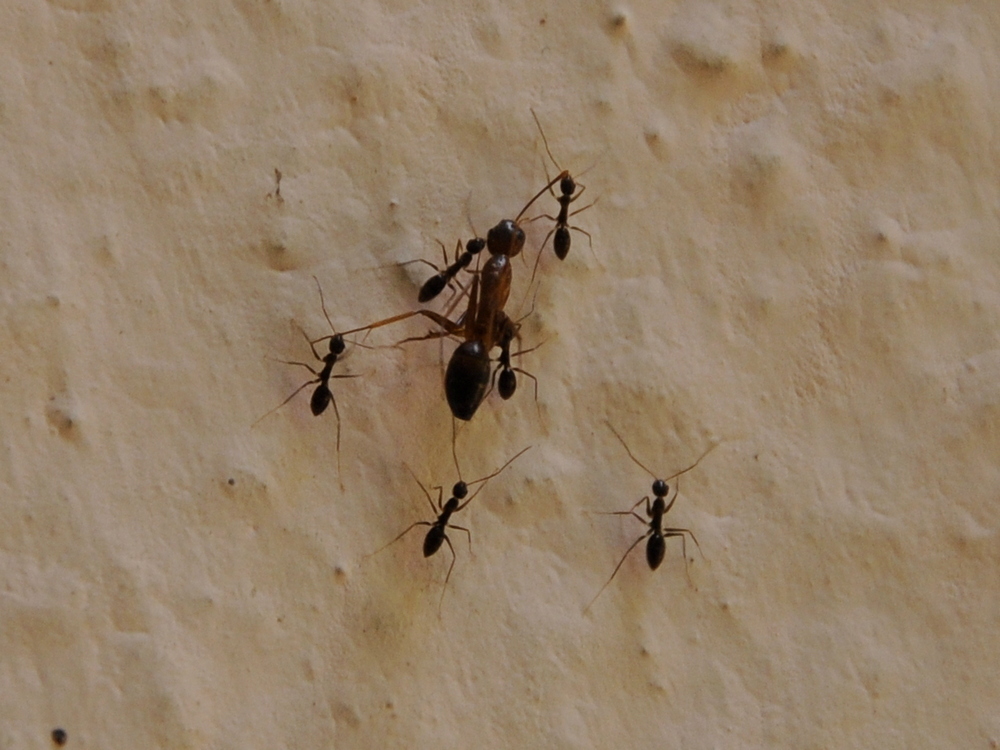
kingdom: Animalia
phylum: Arthropoda
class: Insecta
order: Hymenoptera
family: Formicidae
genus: Paratrechina
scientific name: Paratrechina longicornis
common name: Longhorned crazy ant
